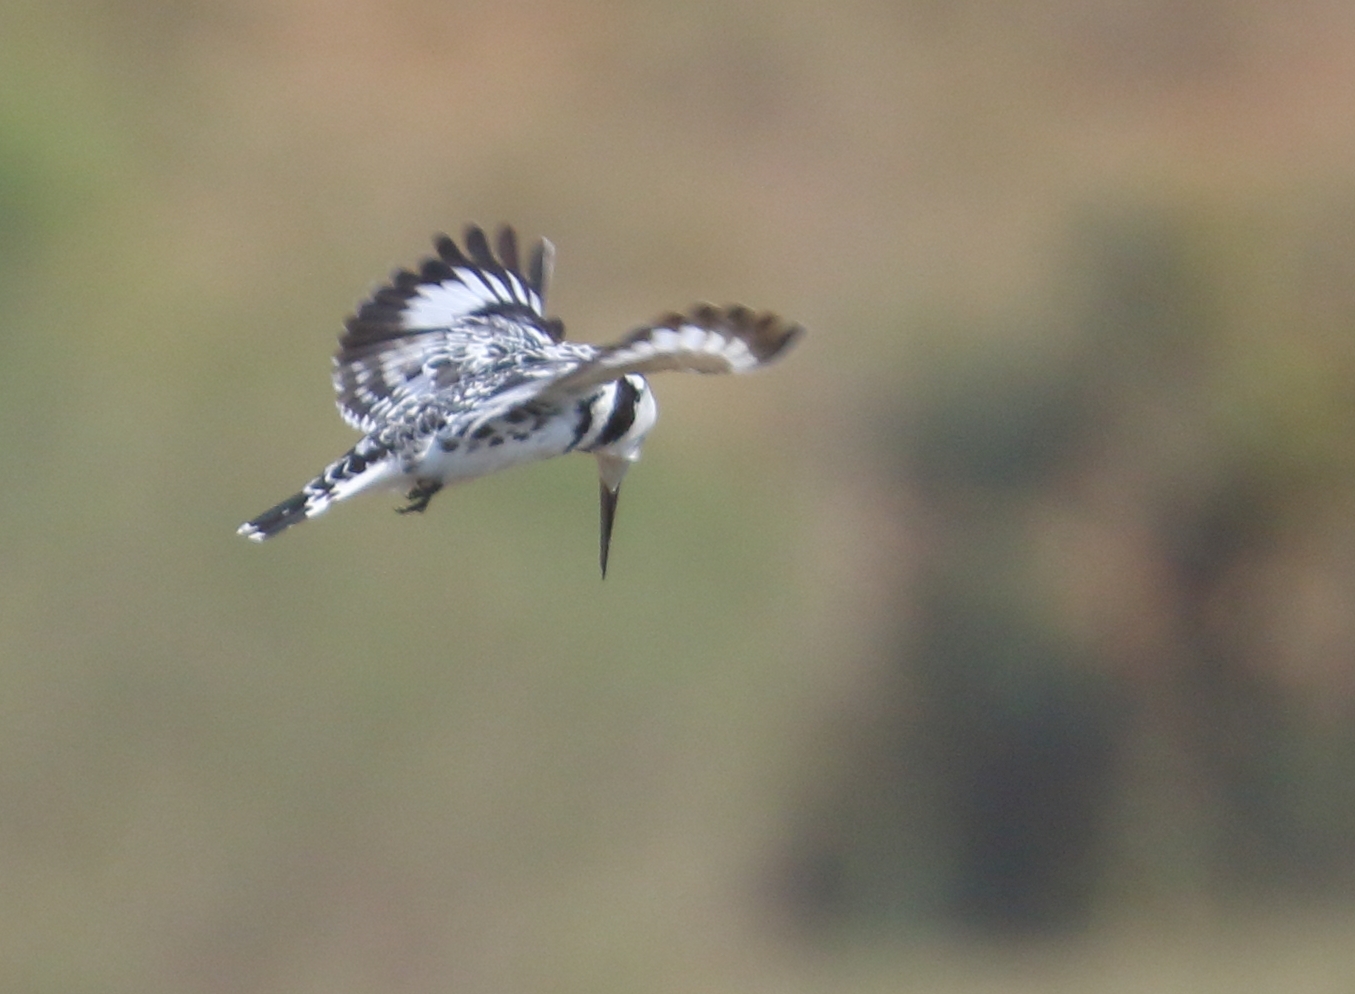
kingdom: Animalia
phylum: Chordata
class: Aves
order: Coraciiformes
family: Alcedinidae
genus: Ceryle
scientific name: Ceryle rudis
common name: Pied kingfisher
